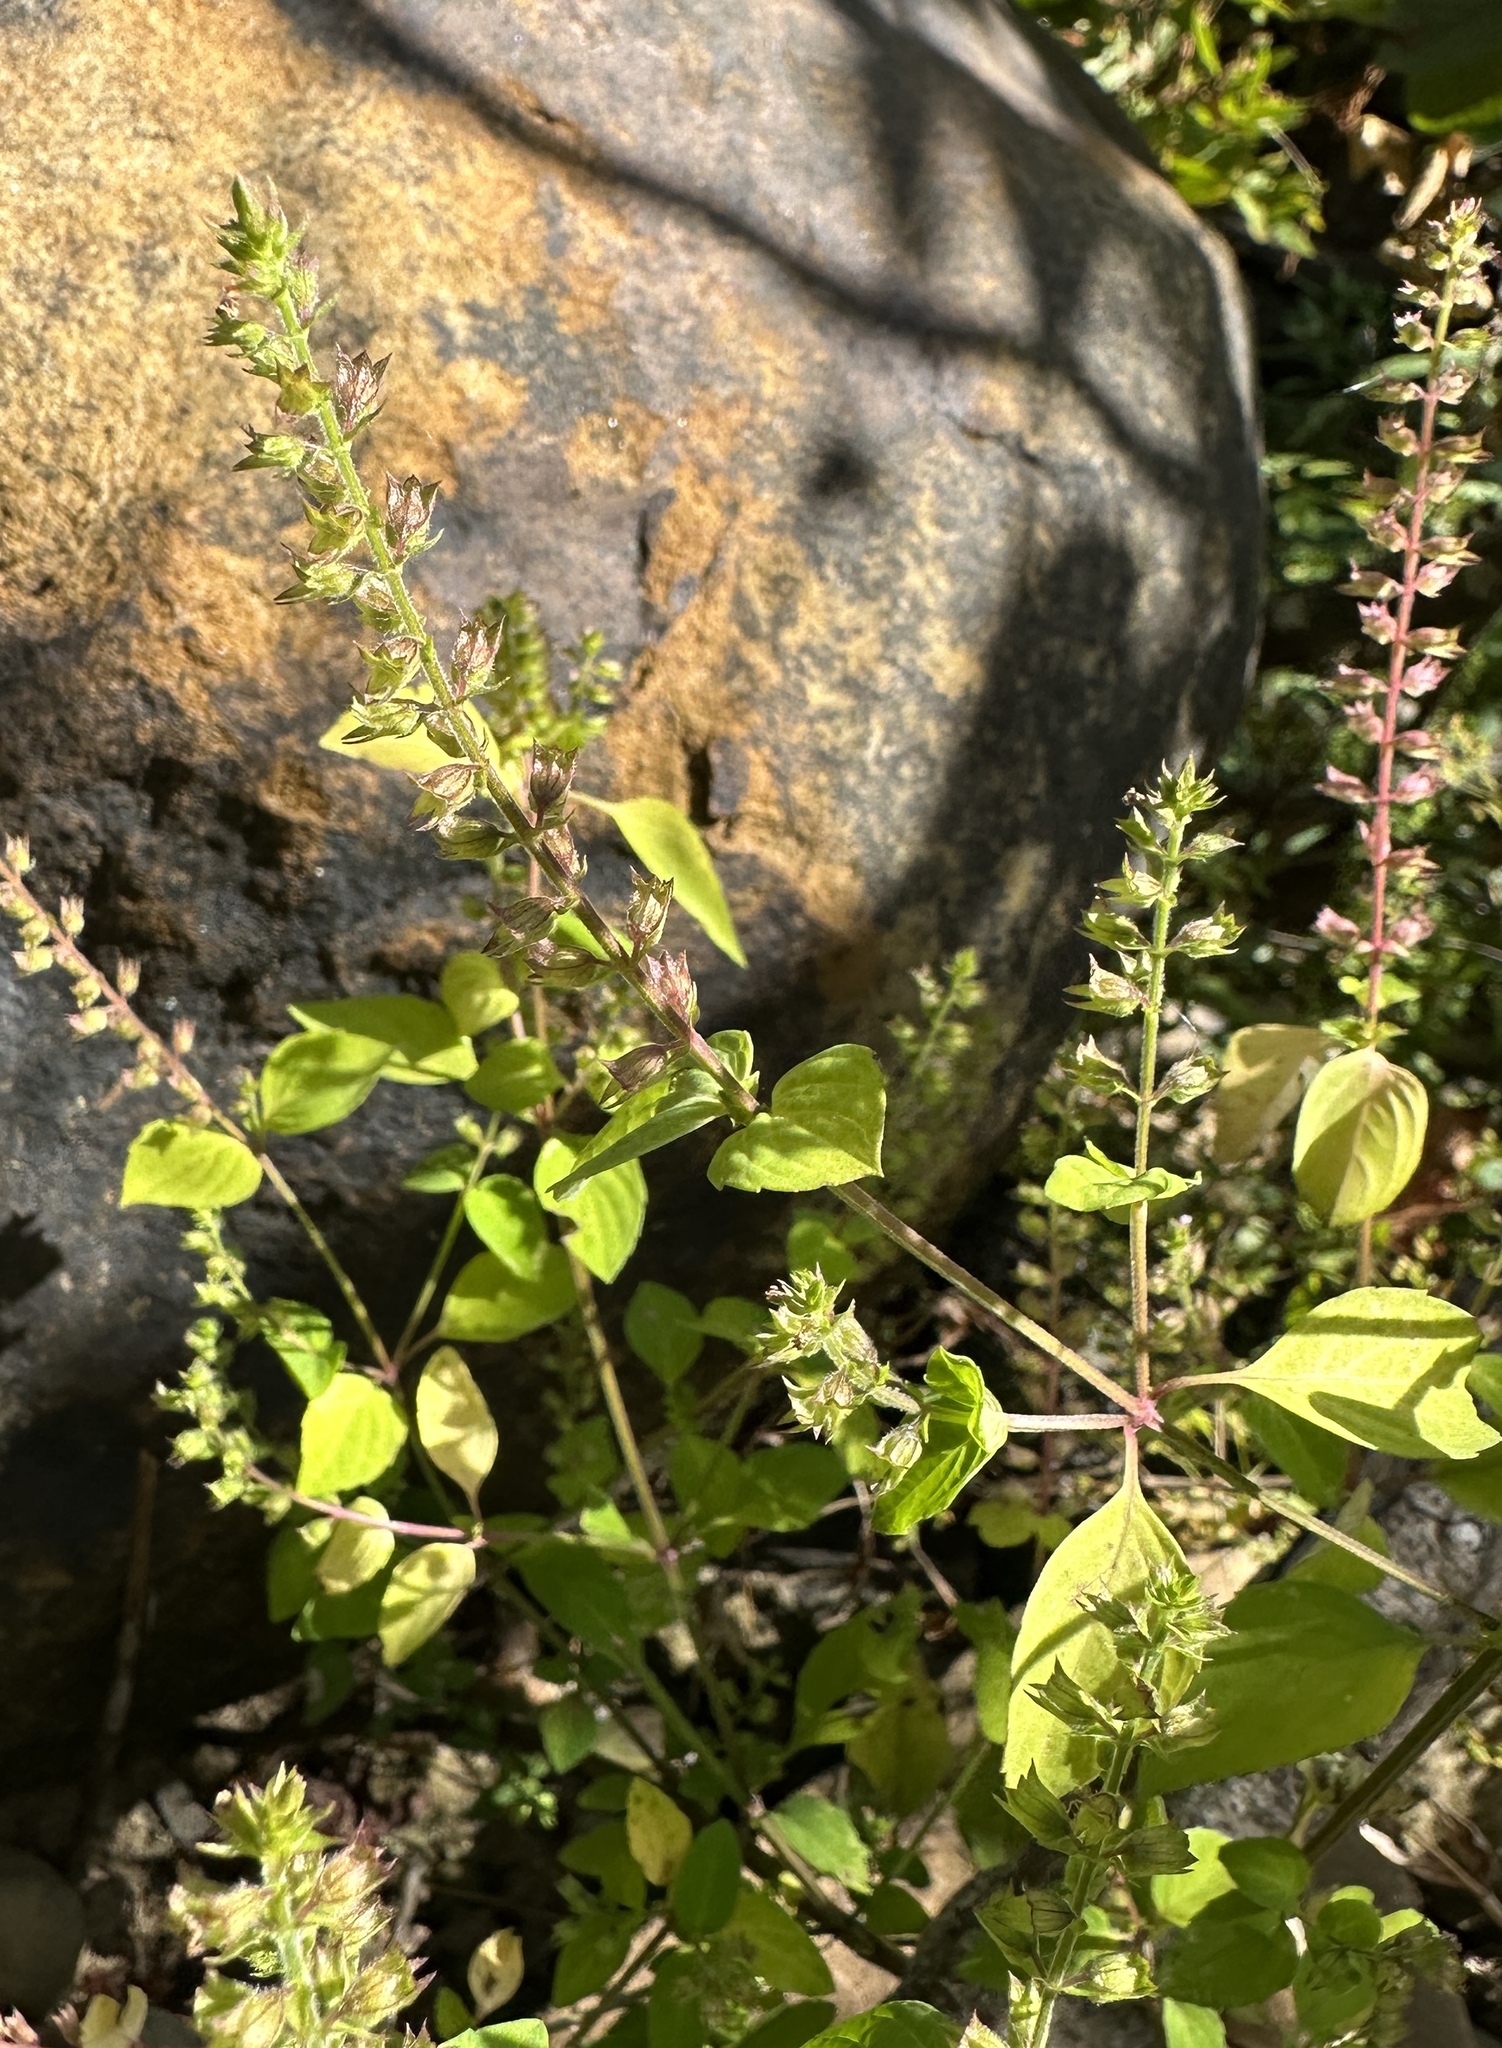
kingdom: Plantae
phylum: Tracheophyta
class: Magnoliopsida
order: Lamiales
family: Lamiaceae
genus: Mosla
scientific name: Mosla dianthera
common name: Miniature beefsteakplant
